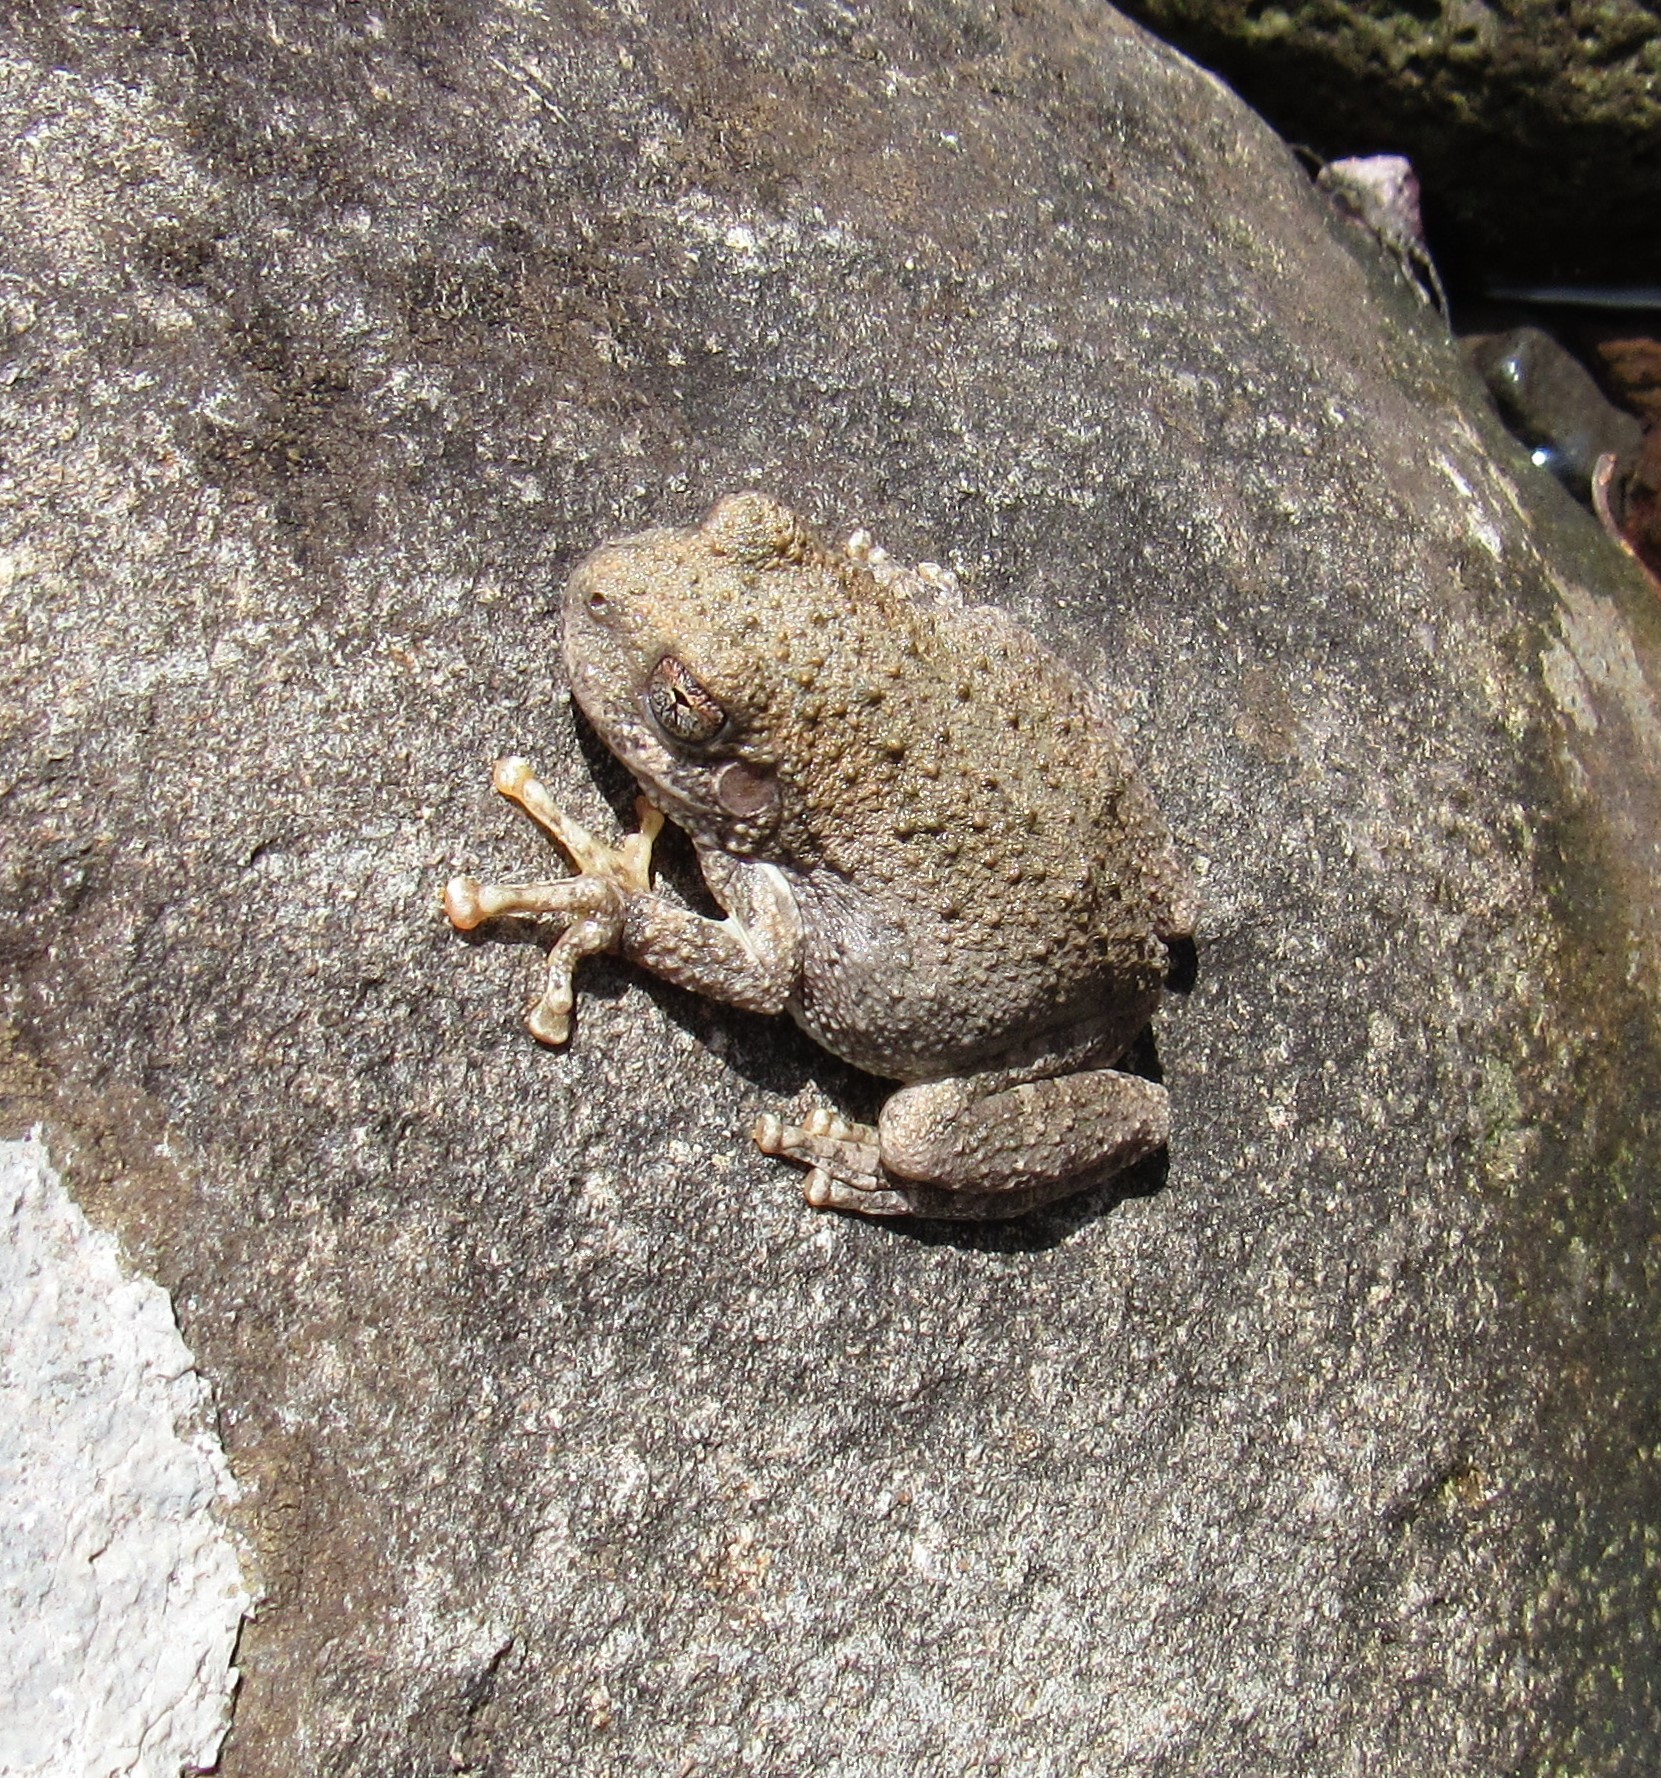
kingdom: Animalia
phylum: Chordata
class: Amphibia
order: Anura
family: Hylidae
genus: Dryophytes
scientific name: Dryophytes arenicolor
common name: Canyon treefrog
